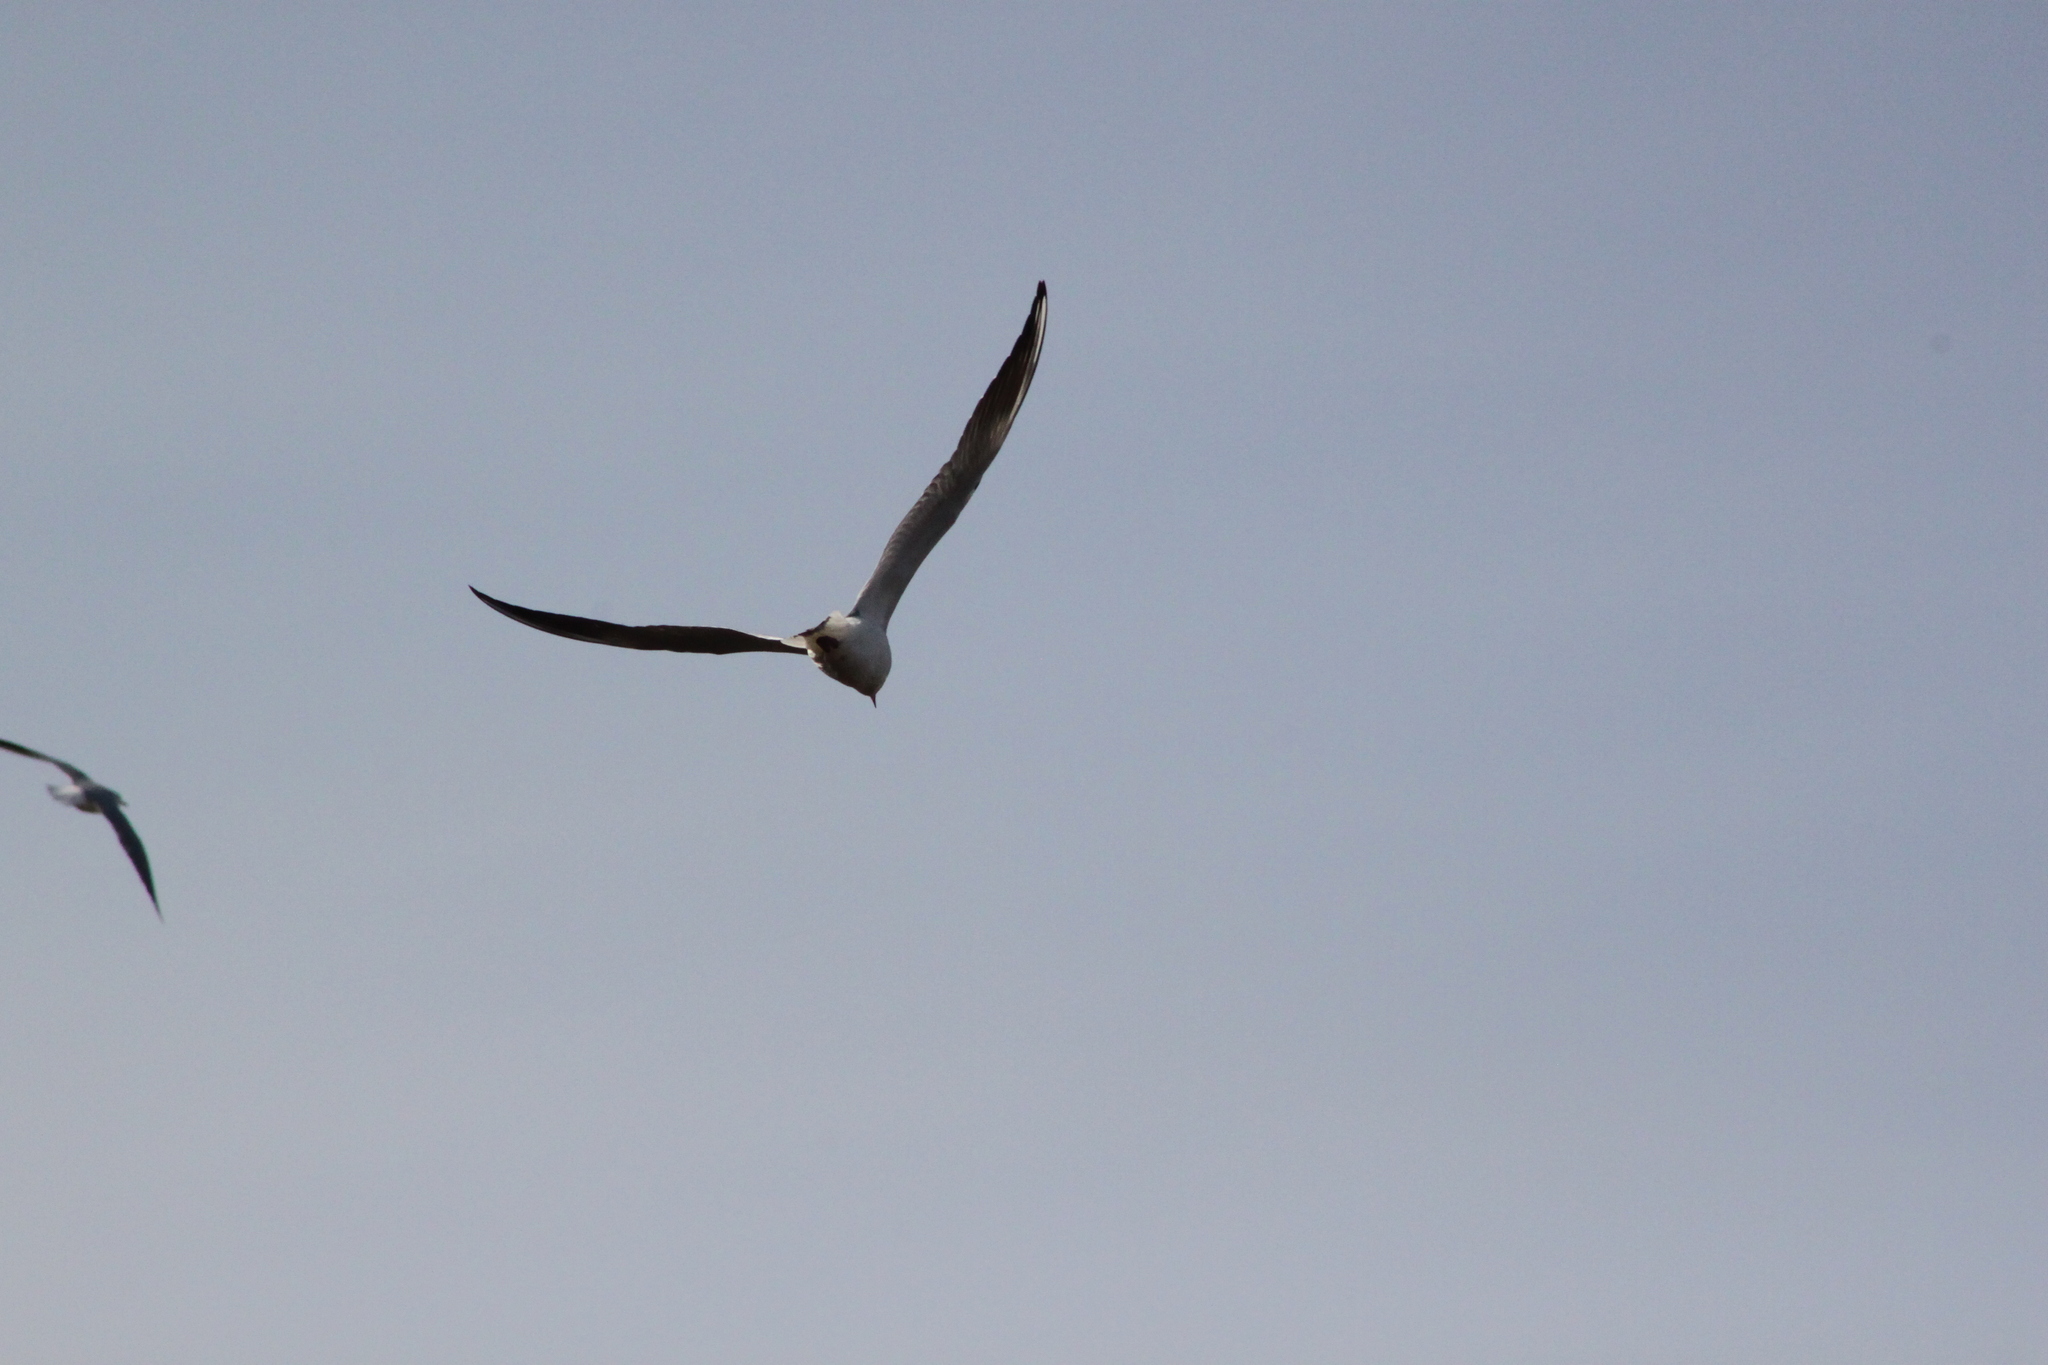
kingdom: Animalia
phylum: Chordata
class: Aves
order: Charadriiformes
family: Laridae
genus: Chroicocephalus
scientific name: Chroicocephalus ridibundus
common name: Black-headed gull
